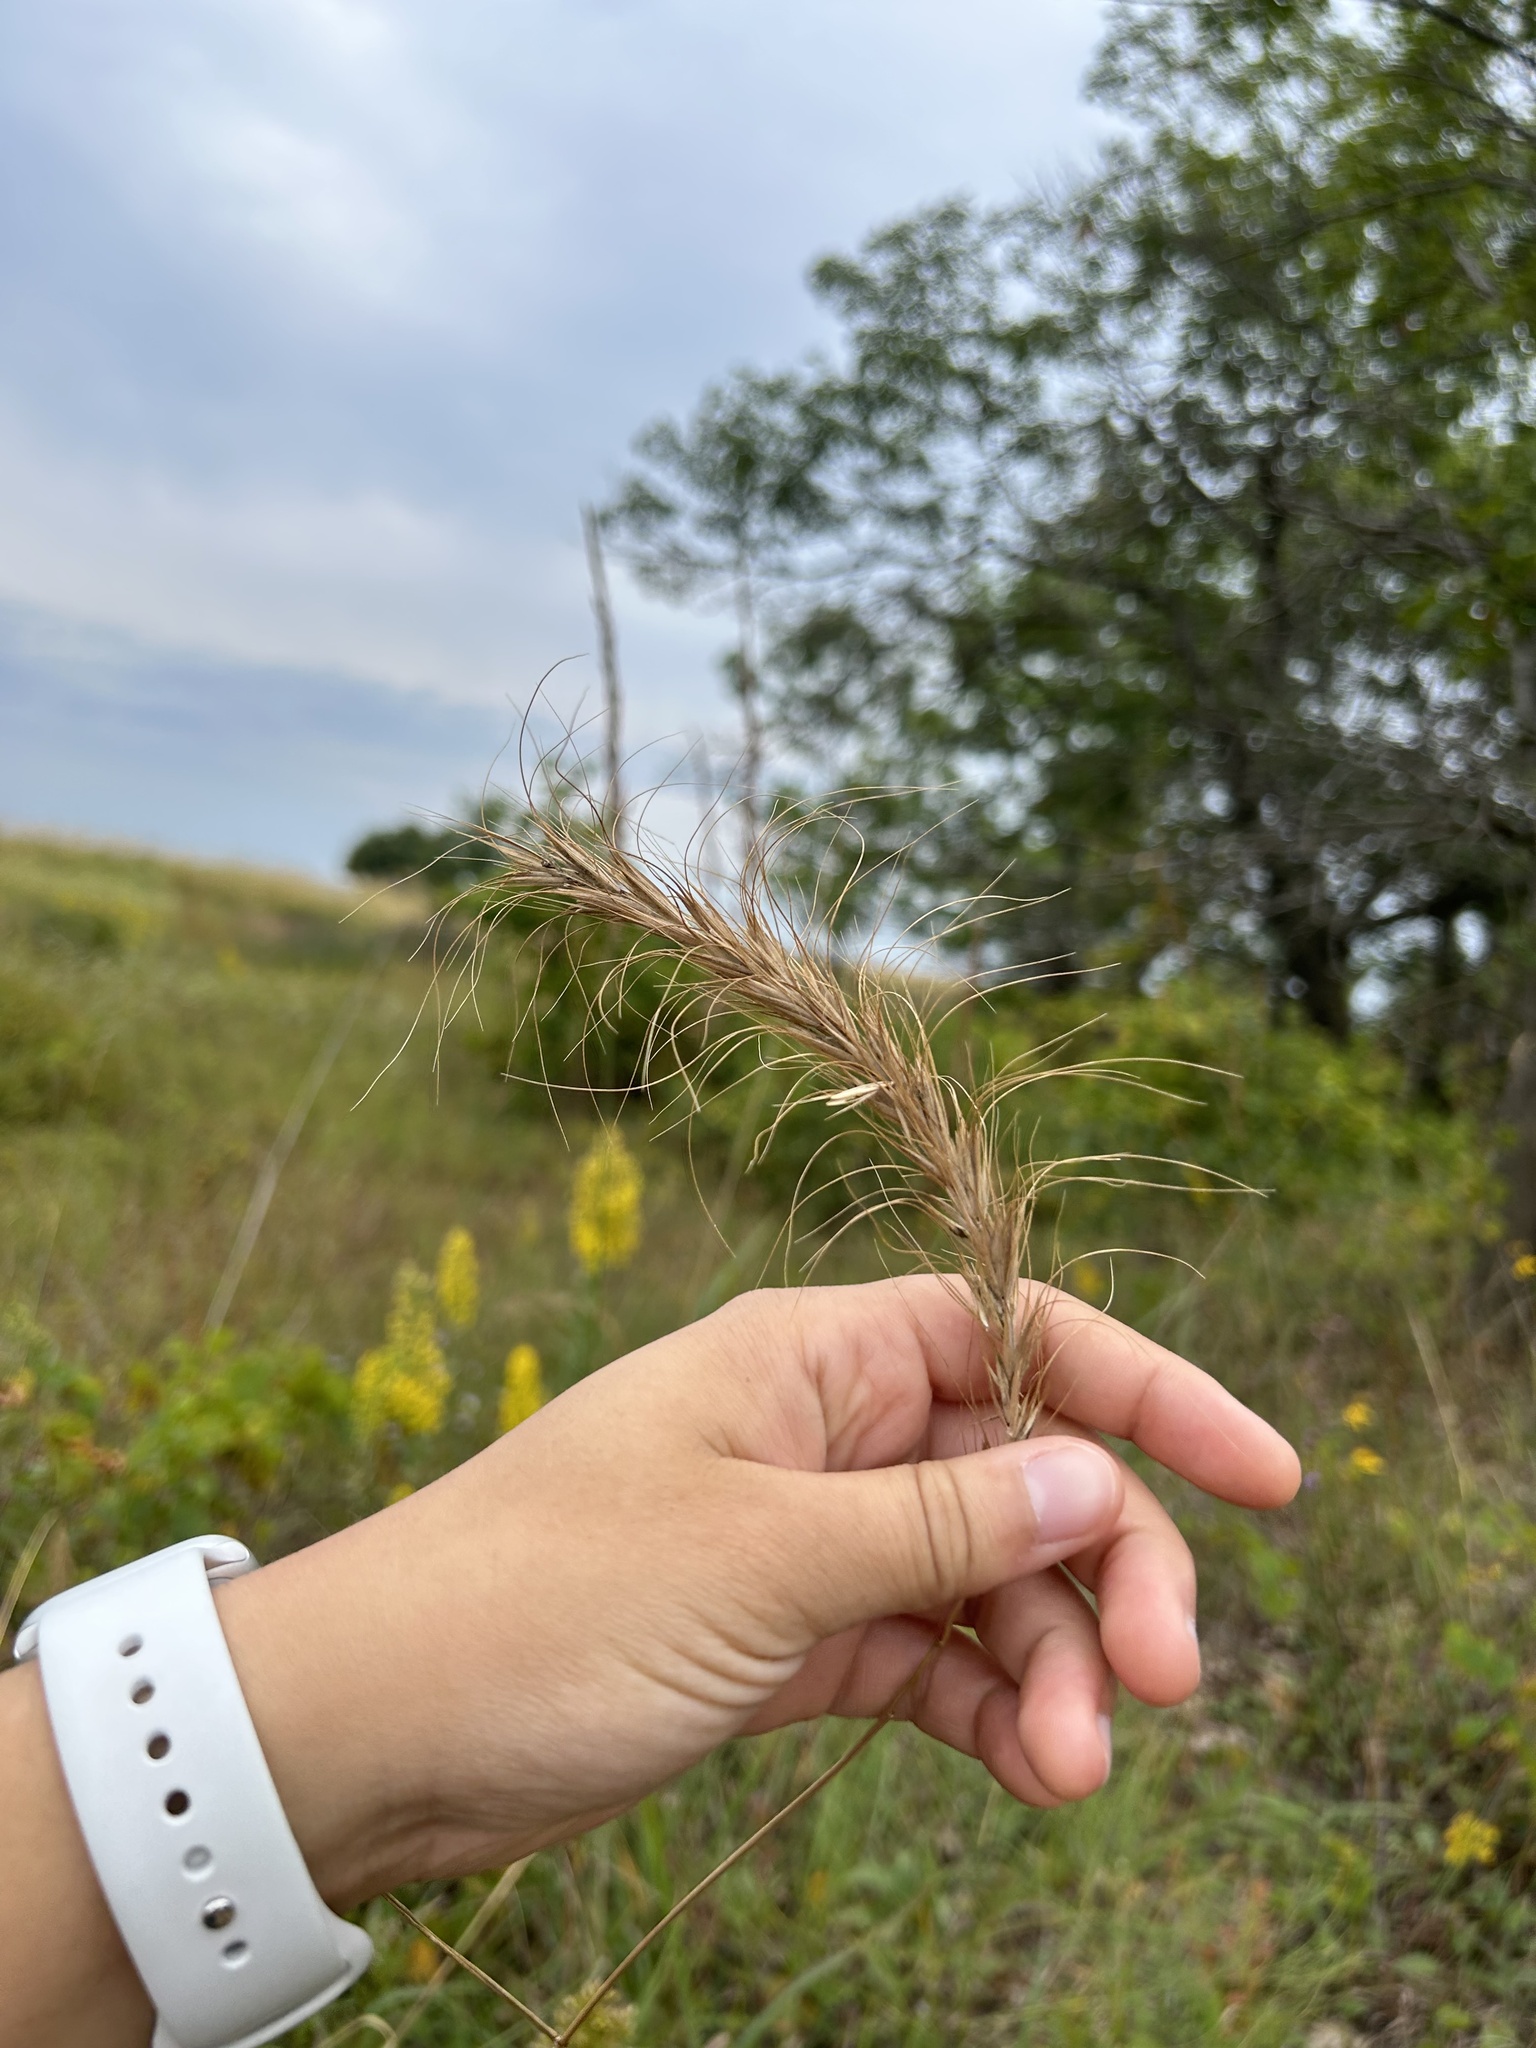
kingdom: Plantae
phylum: Tracheophyta
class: Liliopsida
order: Poales
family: Poaceae
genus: Elymus
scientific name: Elymus canadensis
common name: Canada wild rye
